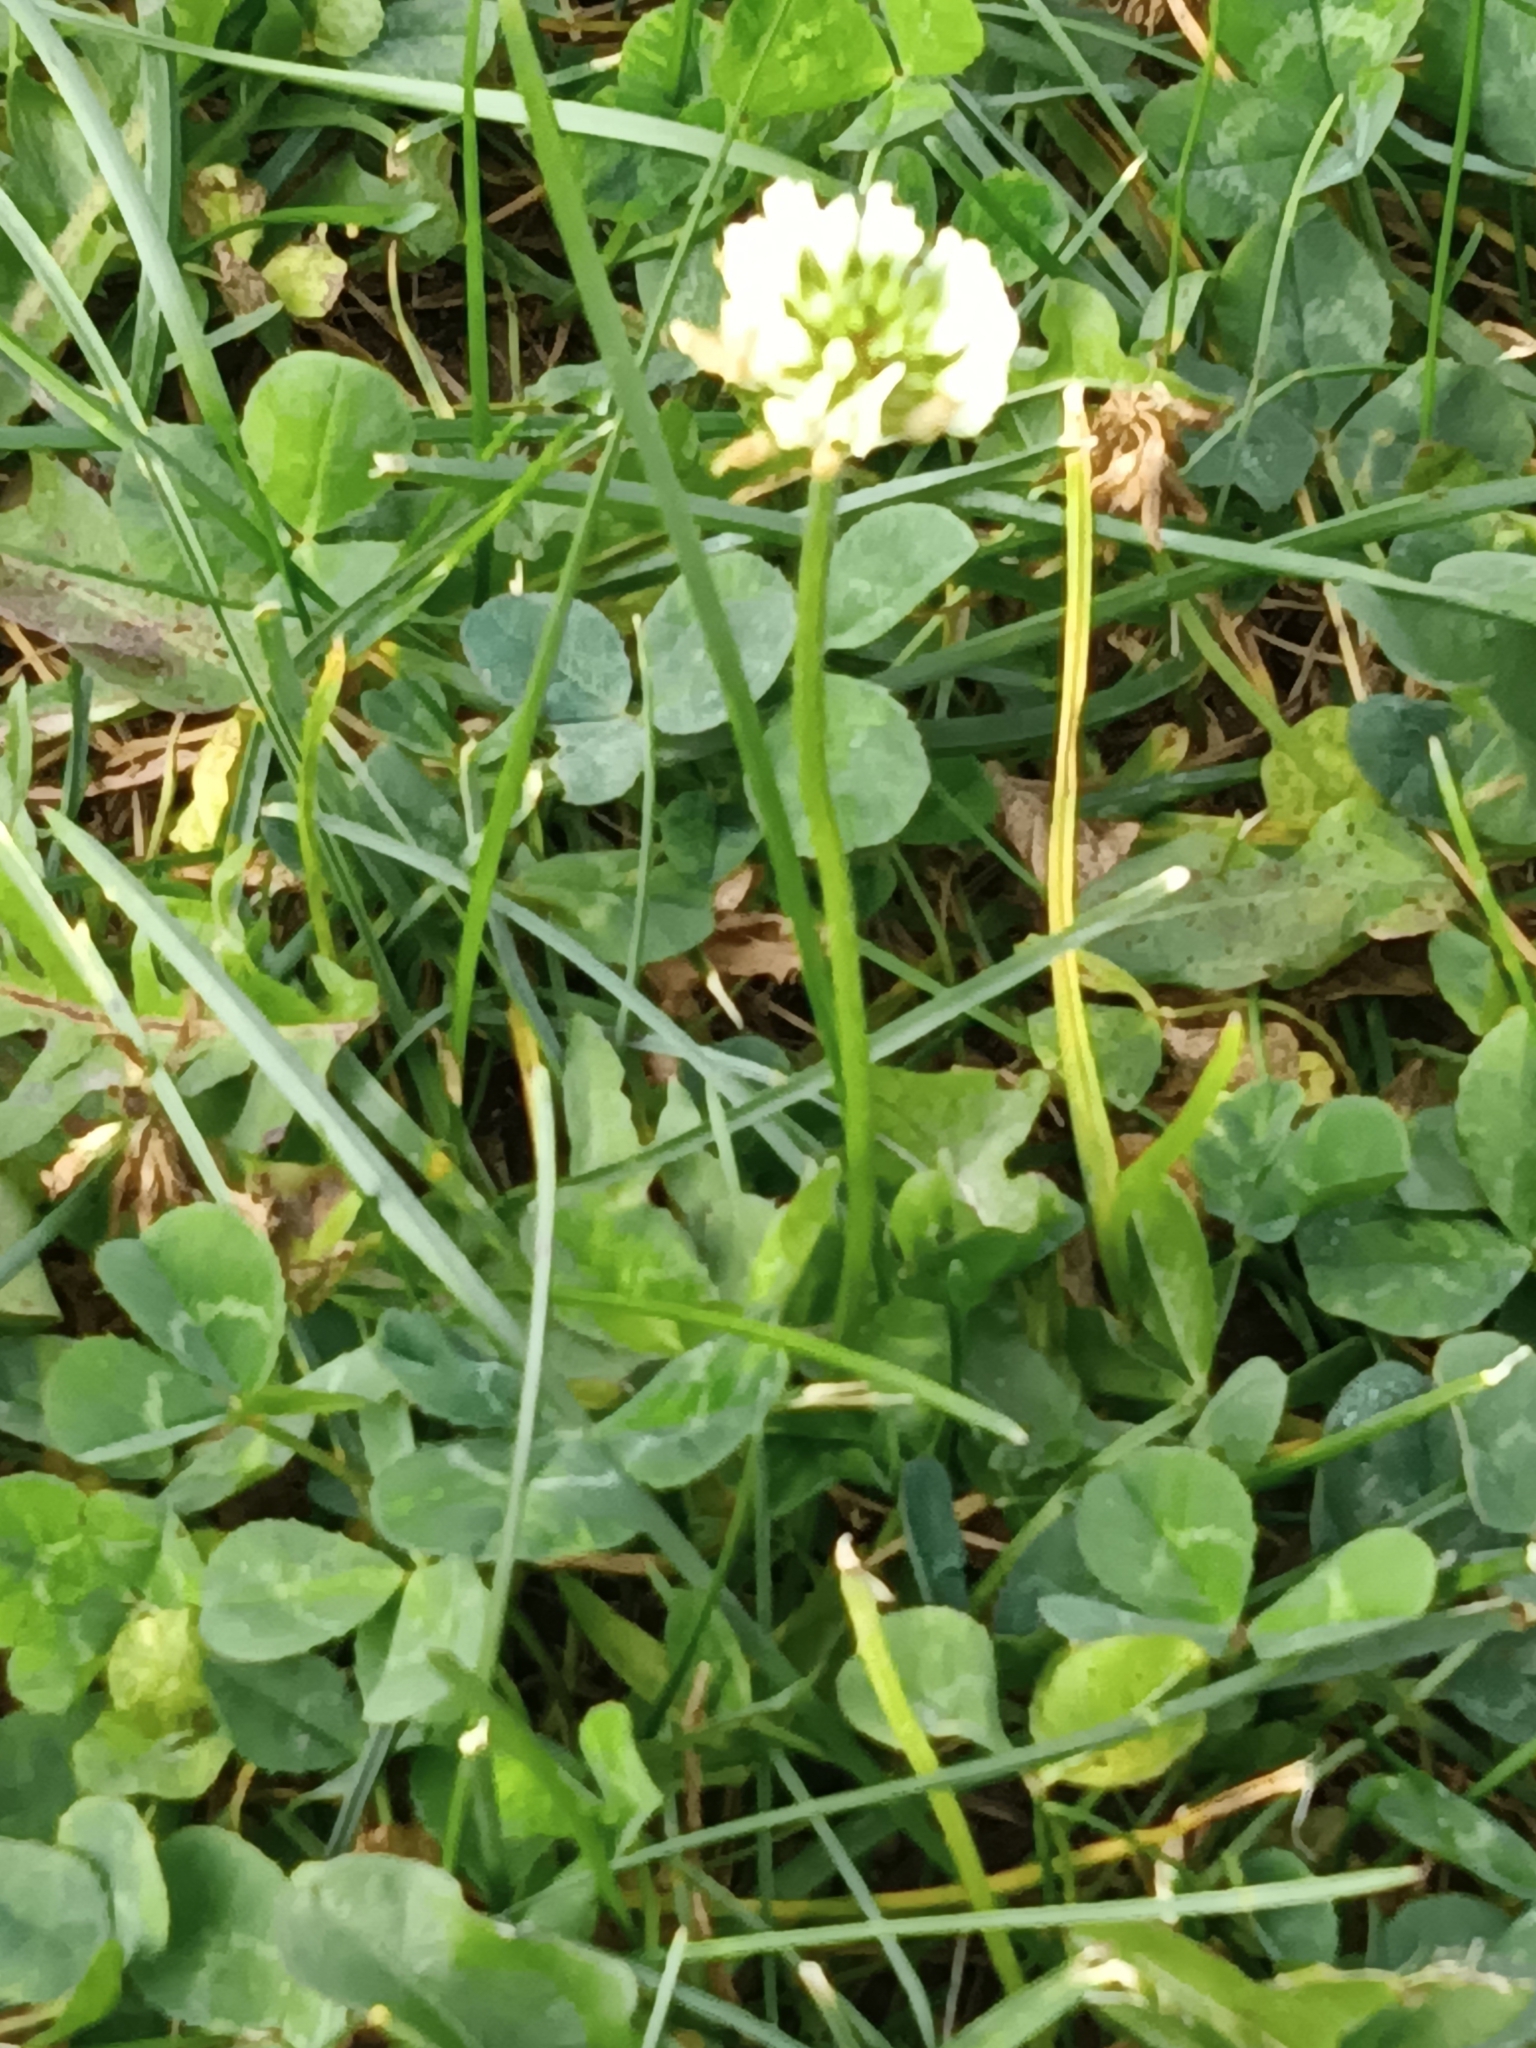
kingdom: Plantae
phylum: Tracheophyta
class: Magnoliopsida
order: Fabales
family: Fabaceae
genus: Trifolium
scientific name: Trifolium repens
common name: White clover
